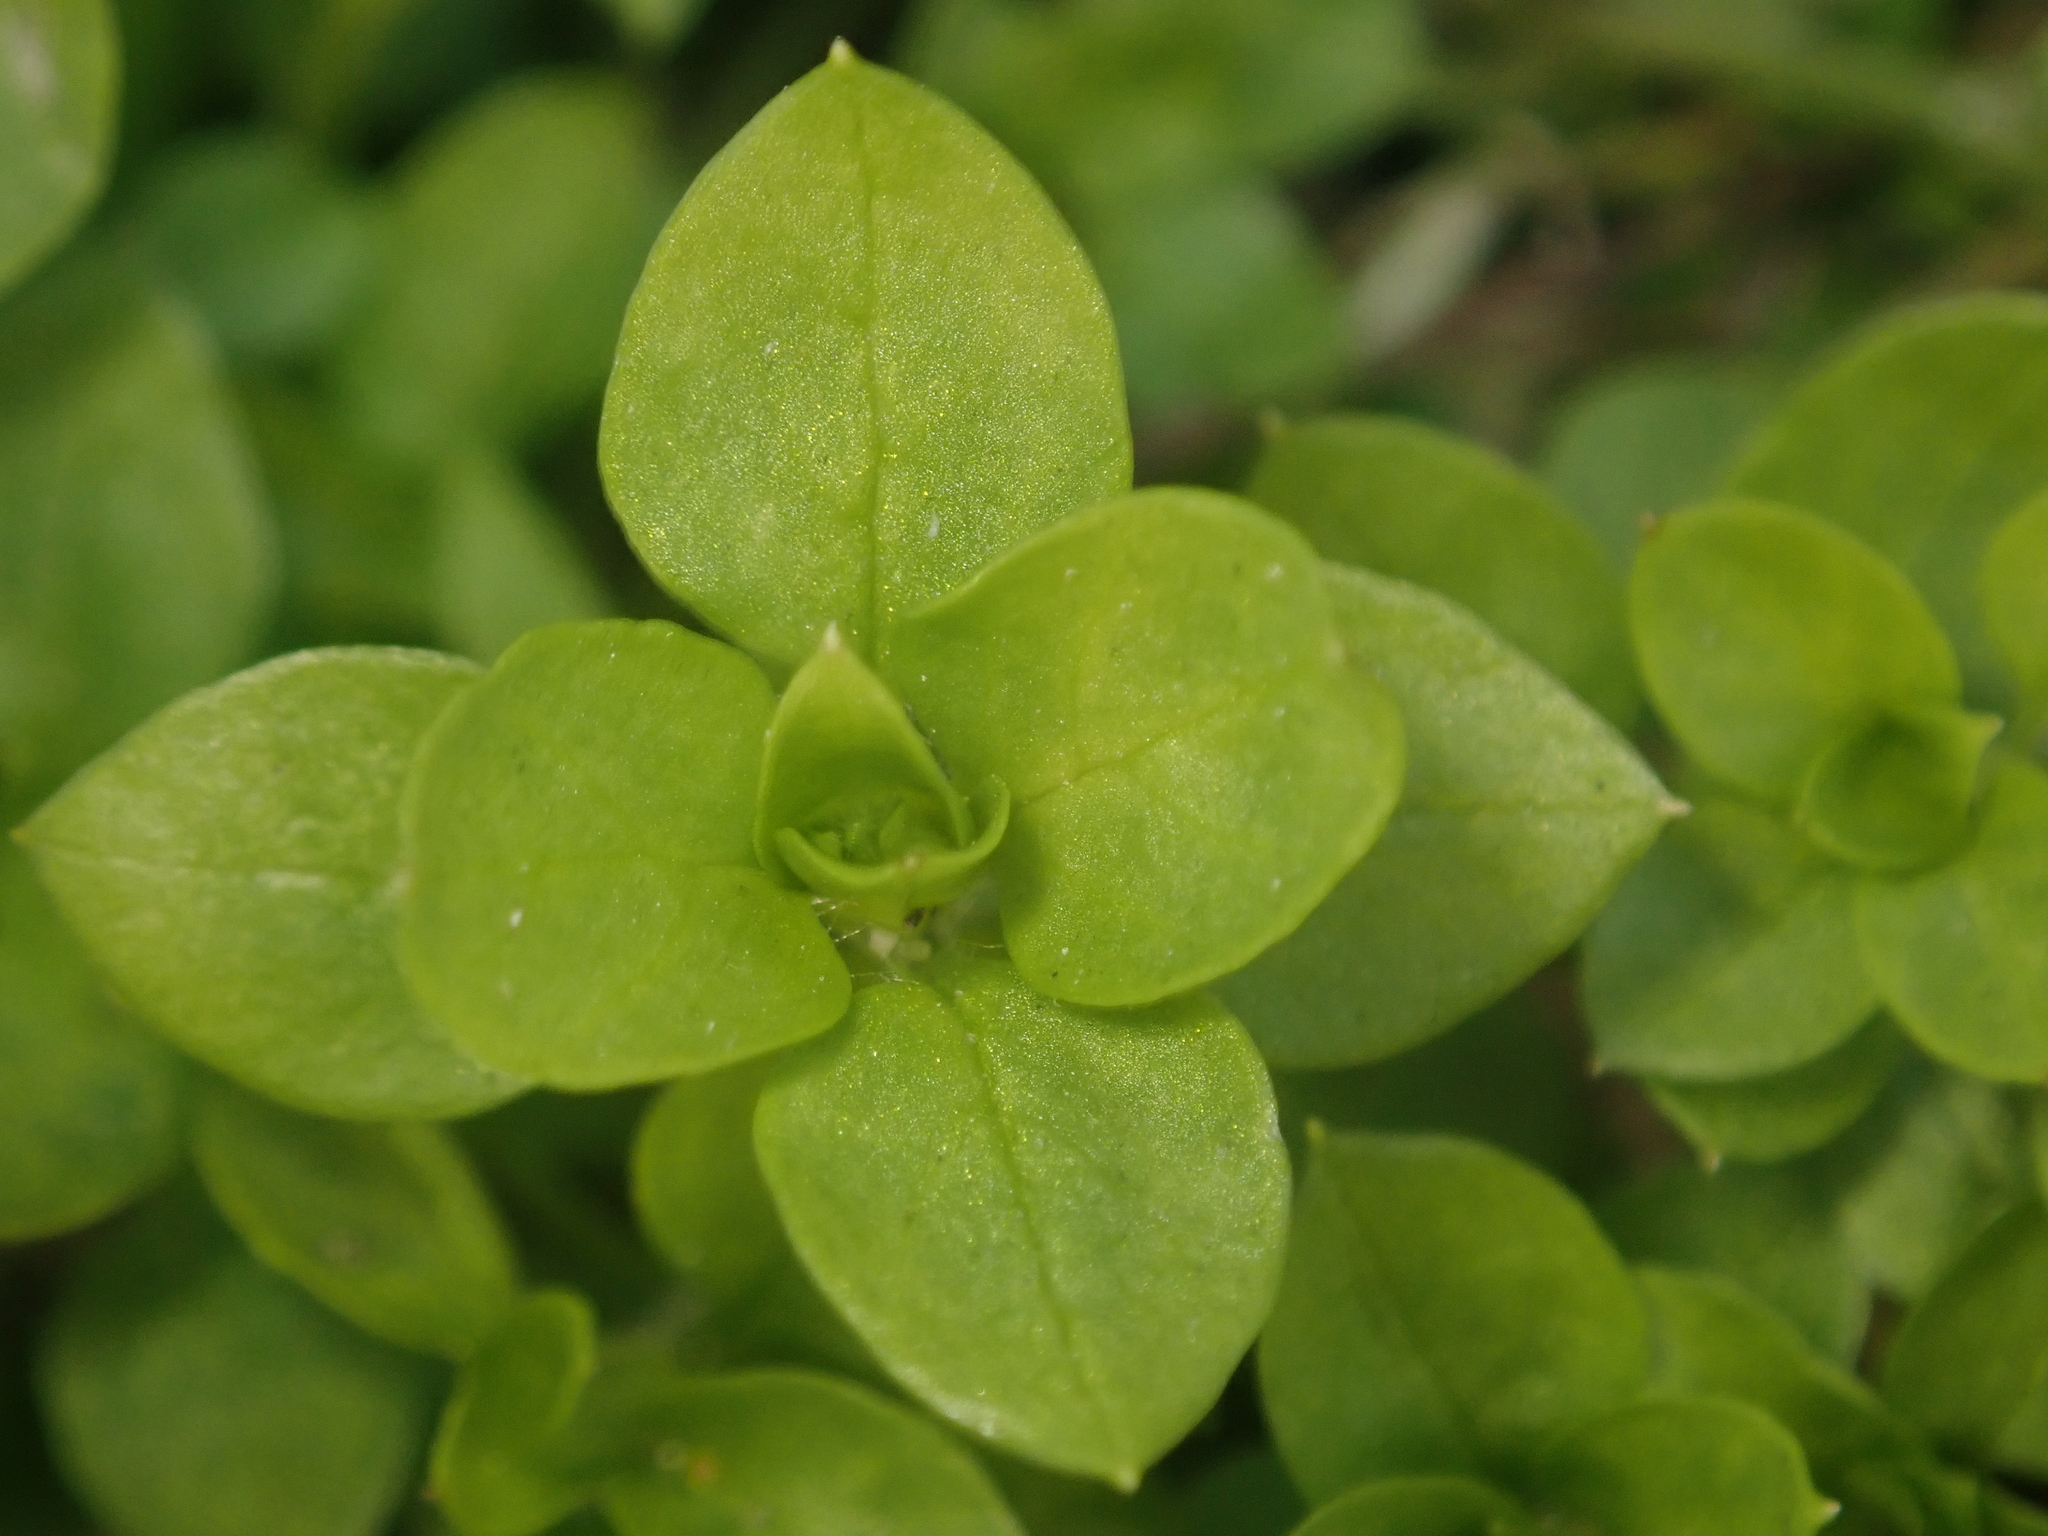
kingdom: Plantae
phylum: Tracheophyta
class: Magnoliopsida
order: Caryophyllales
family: Caryophyllaceae
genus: Stellaria
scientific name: Stellaria media
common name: Common chickweed
